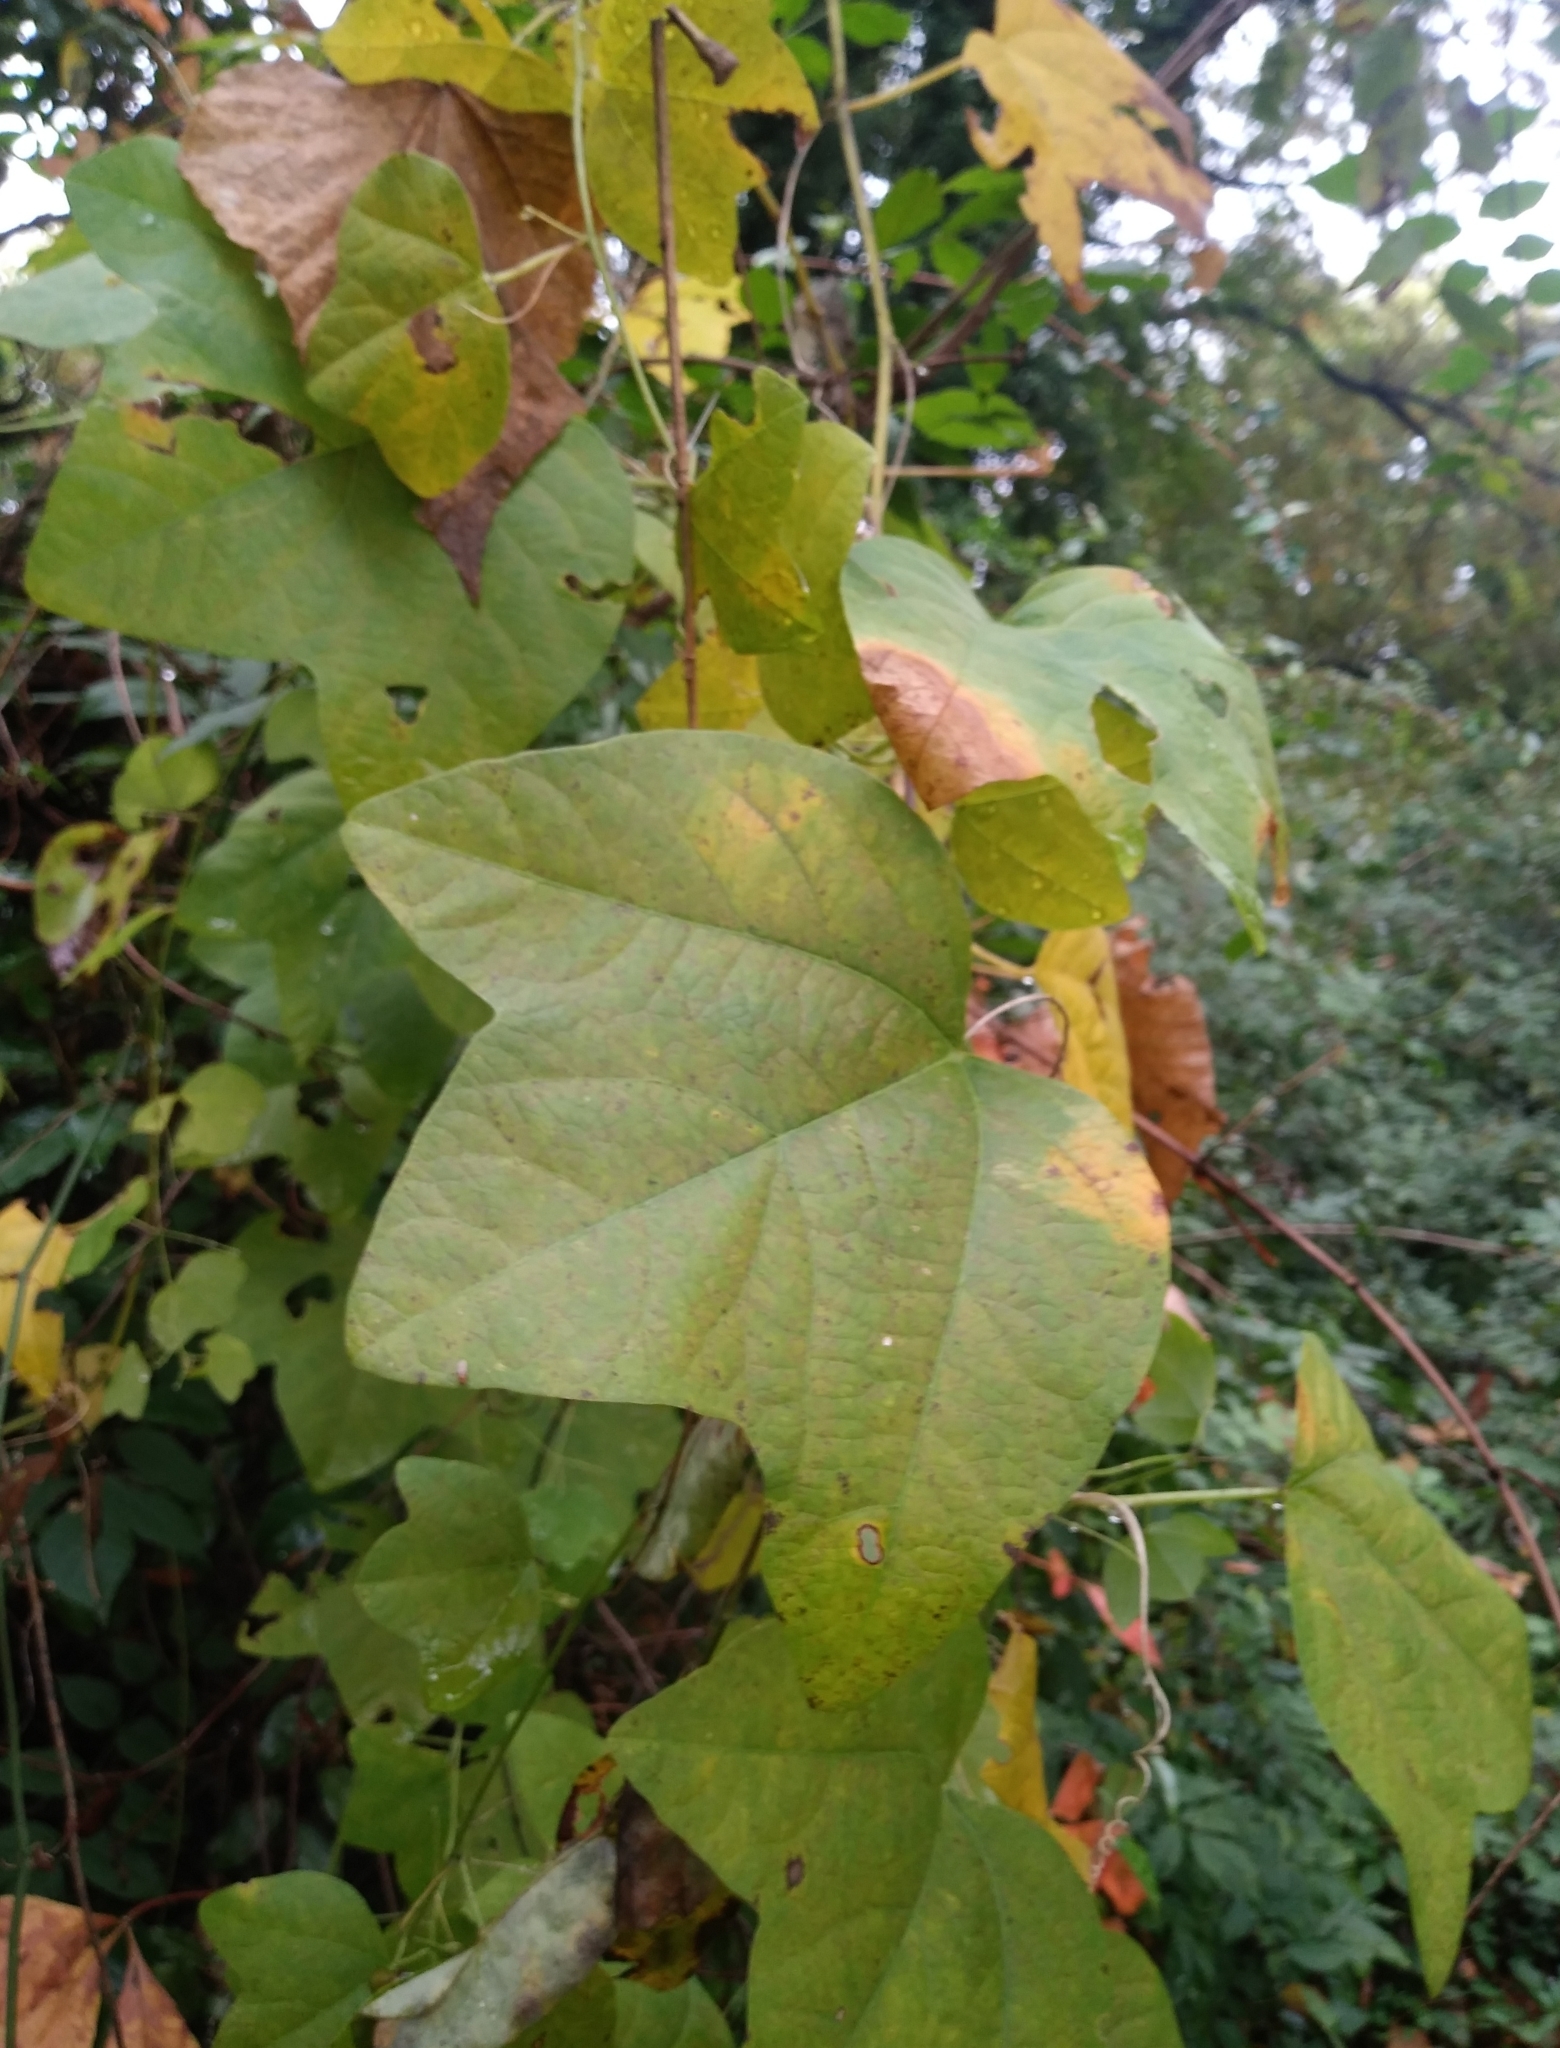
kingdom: Plantae
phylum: Tracheophyta
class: Magnoliopsida
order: Malpighiales
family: Passifloraceae
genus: Passiflora
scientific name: Passiflora lutea
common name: Yellow passionflower
